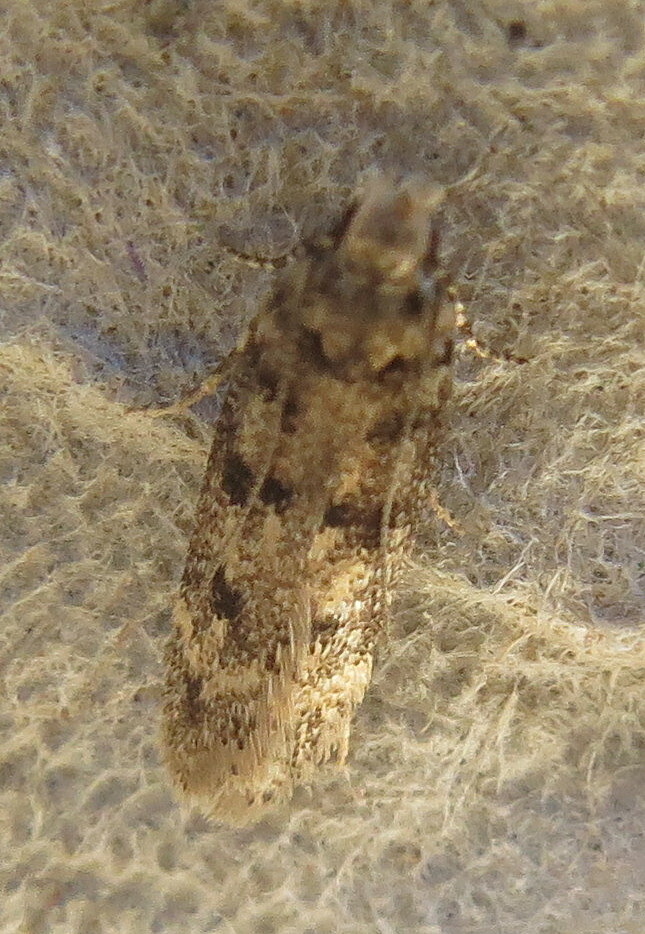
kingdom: Animalia
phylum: Arthropoda
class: Insecta
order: Lepidoptera
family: Gelechiidae
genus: Bryotropha
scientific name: Bryotropha domestica
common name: House groundling
